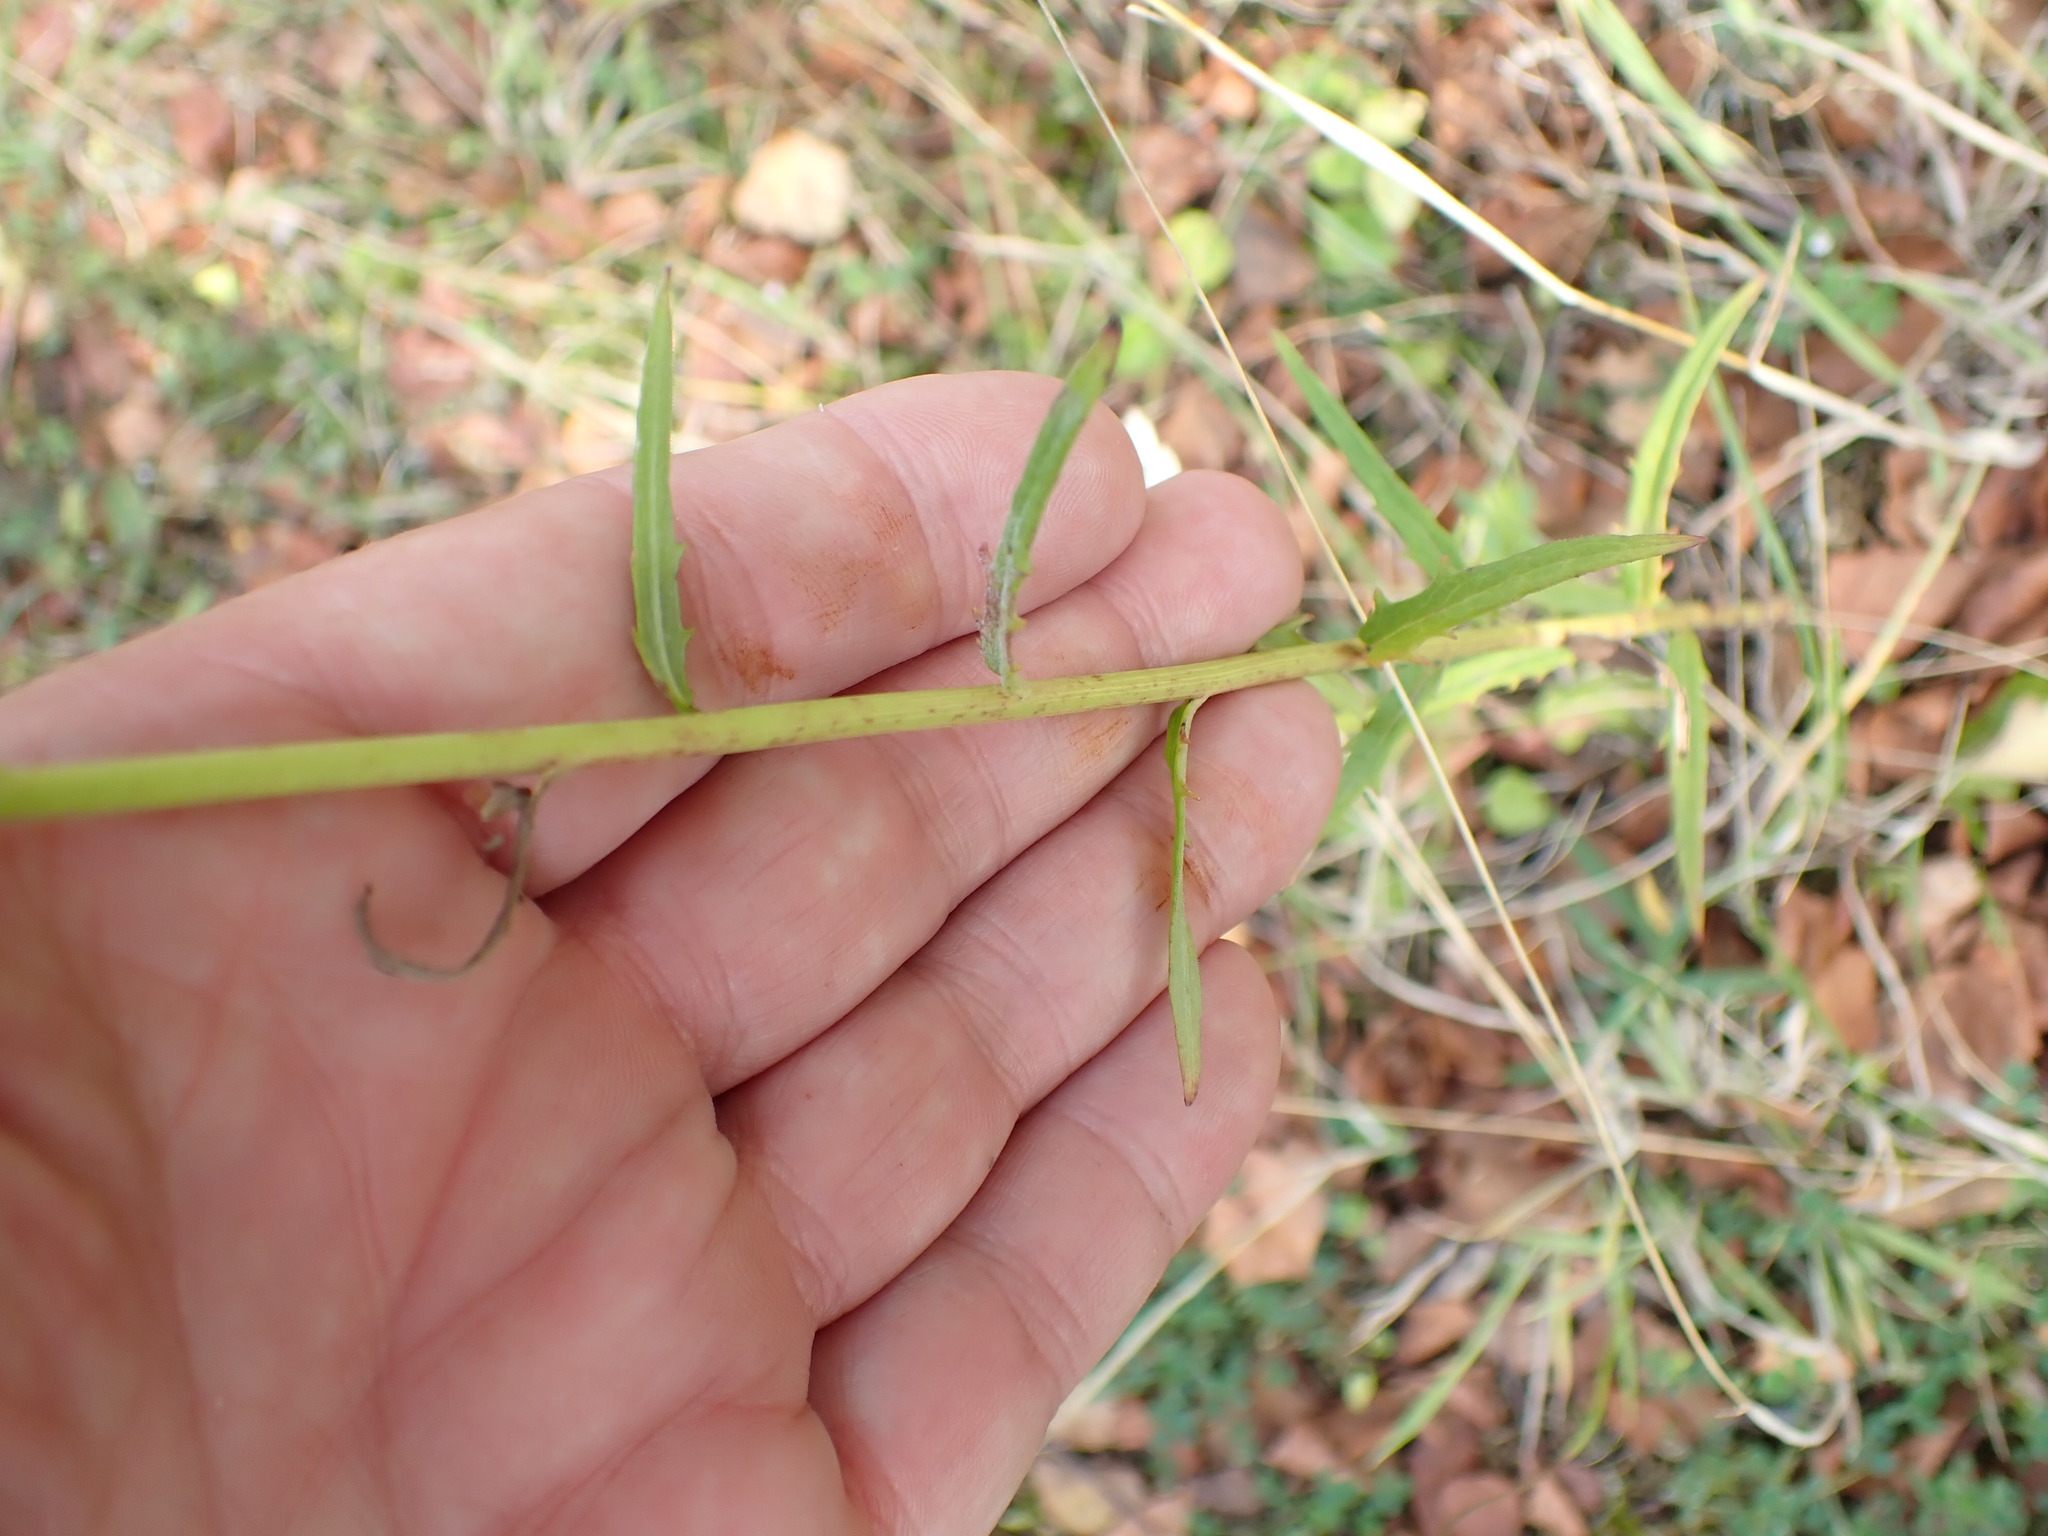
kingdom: Plantae
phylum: Tracheophyta
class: Magnoliopsida
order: Asterales
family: Asteraceae
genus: Hieracium
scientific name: Hieracium umbellatum
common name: Northern hawkweed
